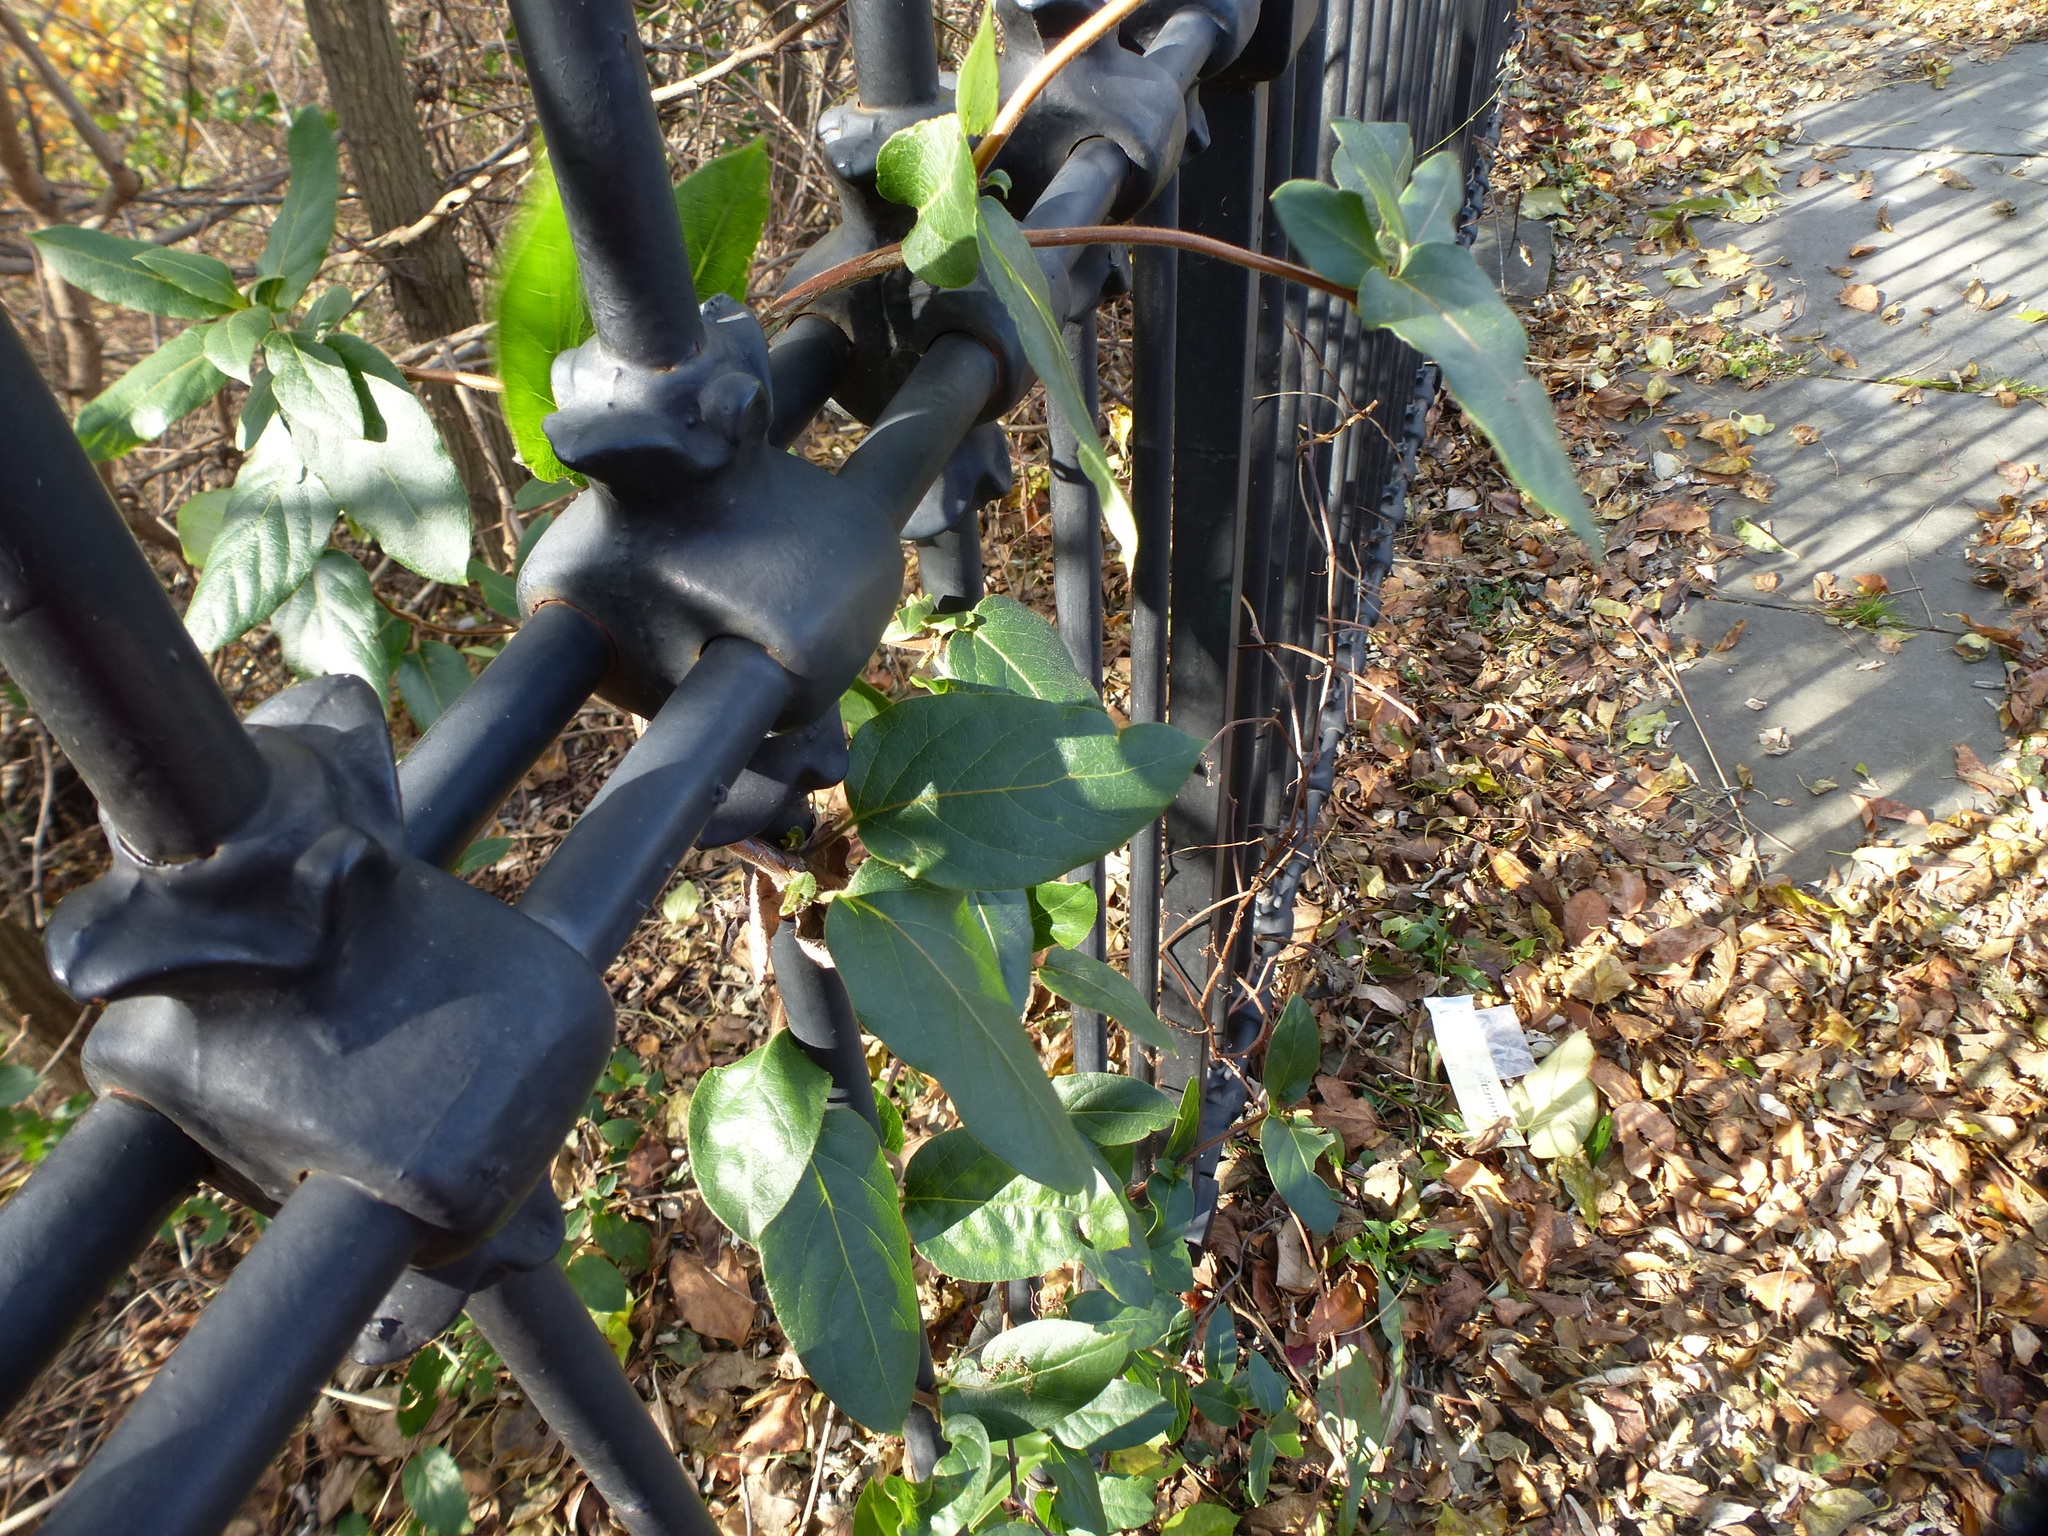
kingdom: Plantae
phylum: Tracheophyta
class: Magnoliopsida
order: Dipsacales
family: Caprifoliaceae
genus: Lonicera
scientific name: Lonicera japonica
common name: Japanese honeysuckle
